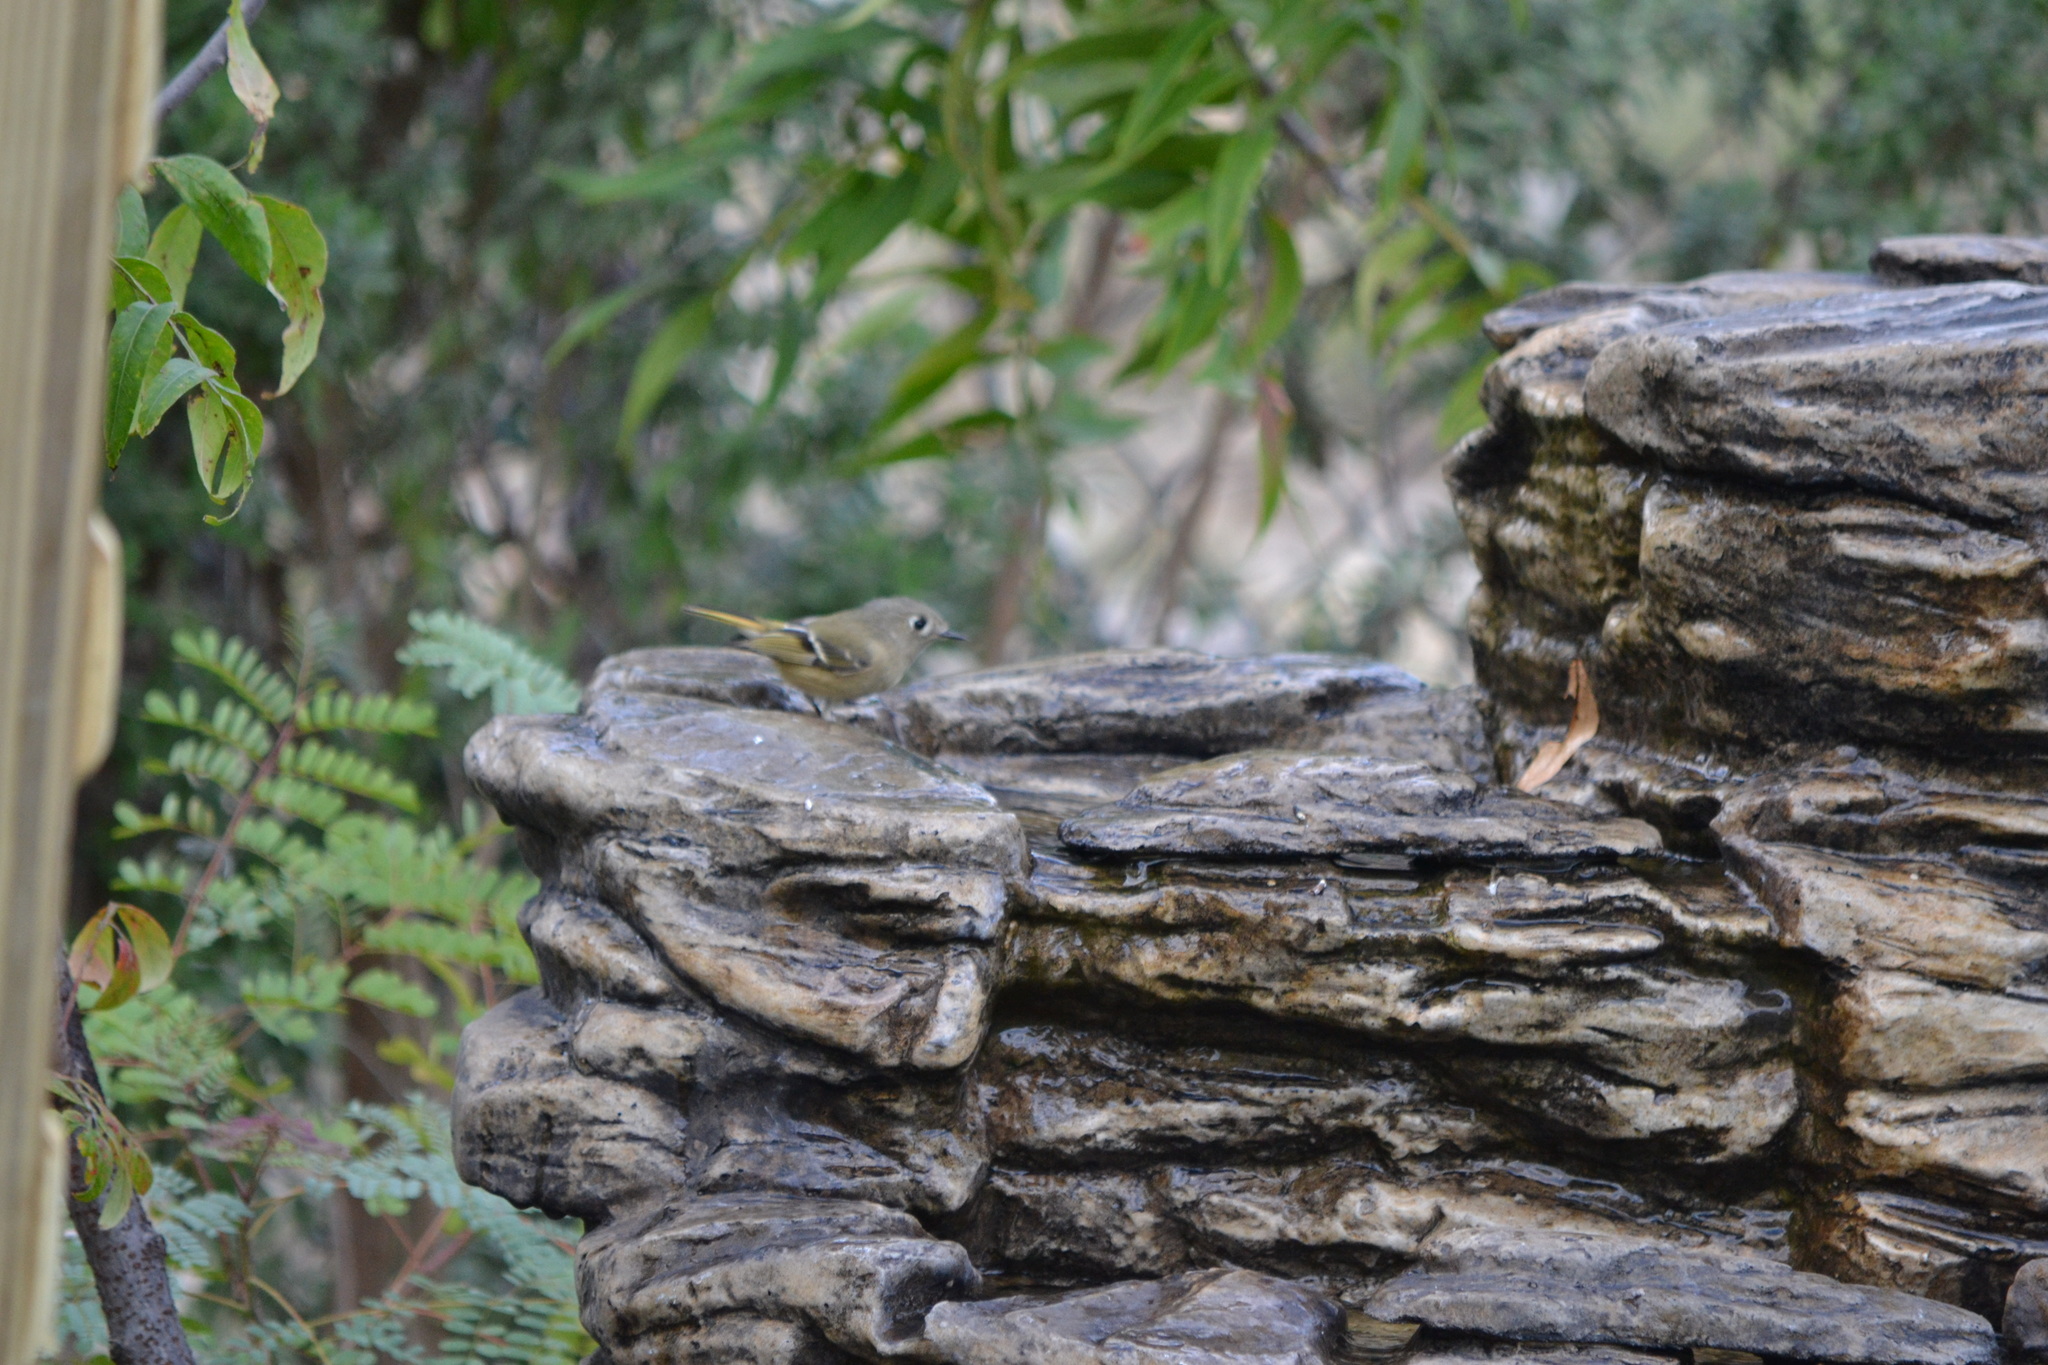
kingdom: Animalia
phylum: Chordata
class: Aves
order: Passeriformes
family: Regulidae
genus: Regulus
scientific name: Regulus calendula
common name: Ruby-crowned kinglet
